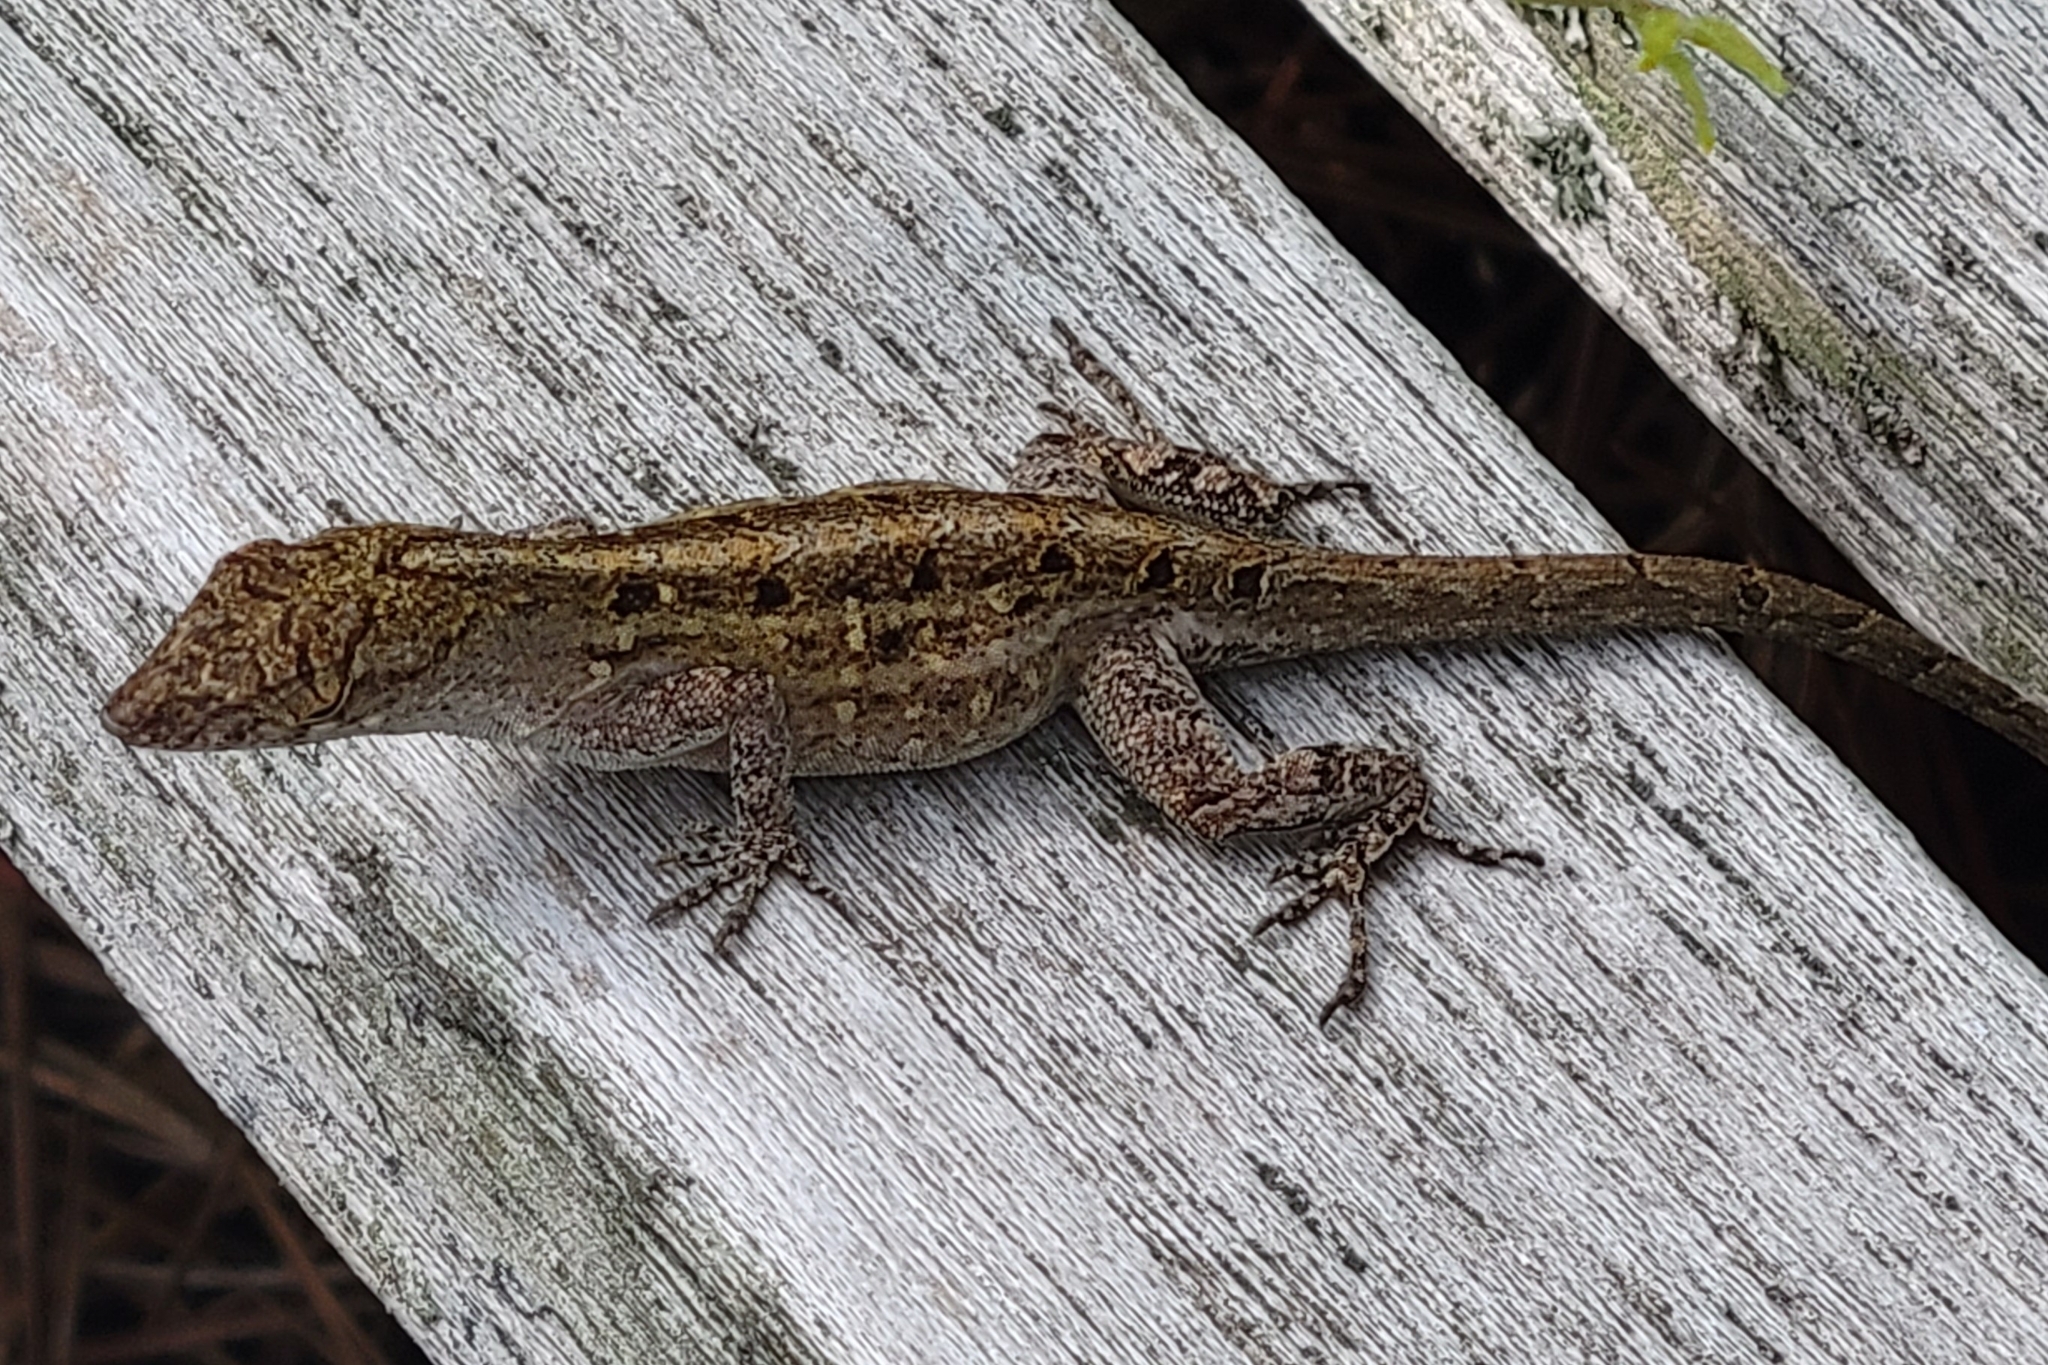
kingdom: Animalia
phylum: Chordata
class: Squamata
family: Dactyloidae
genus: Anolis
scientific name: Anolis sagrei
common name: Brown anole
